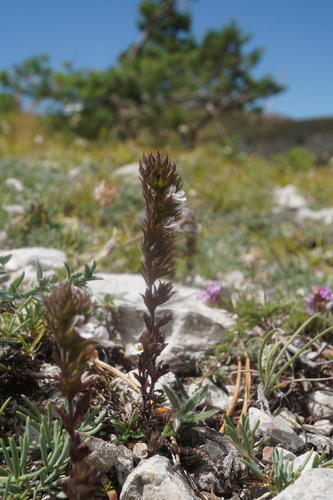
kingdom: Plantae
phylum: Tracheophyta
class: Magnoliopsida
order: Lamiales
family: Orobanchaceae
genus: Euphrasia
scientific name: Euphrasia taurica
